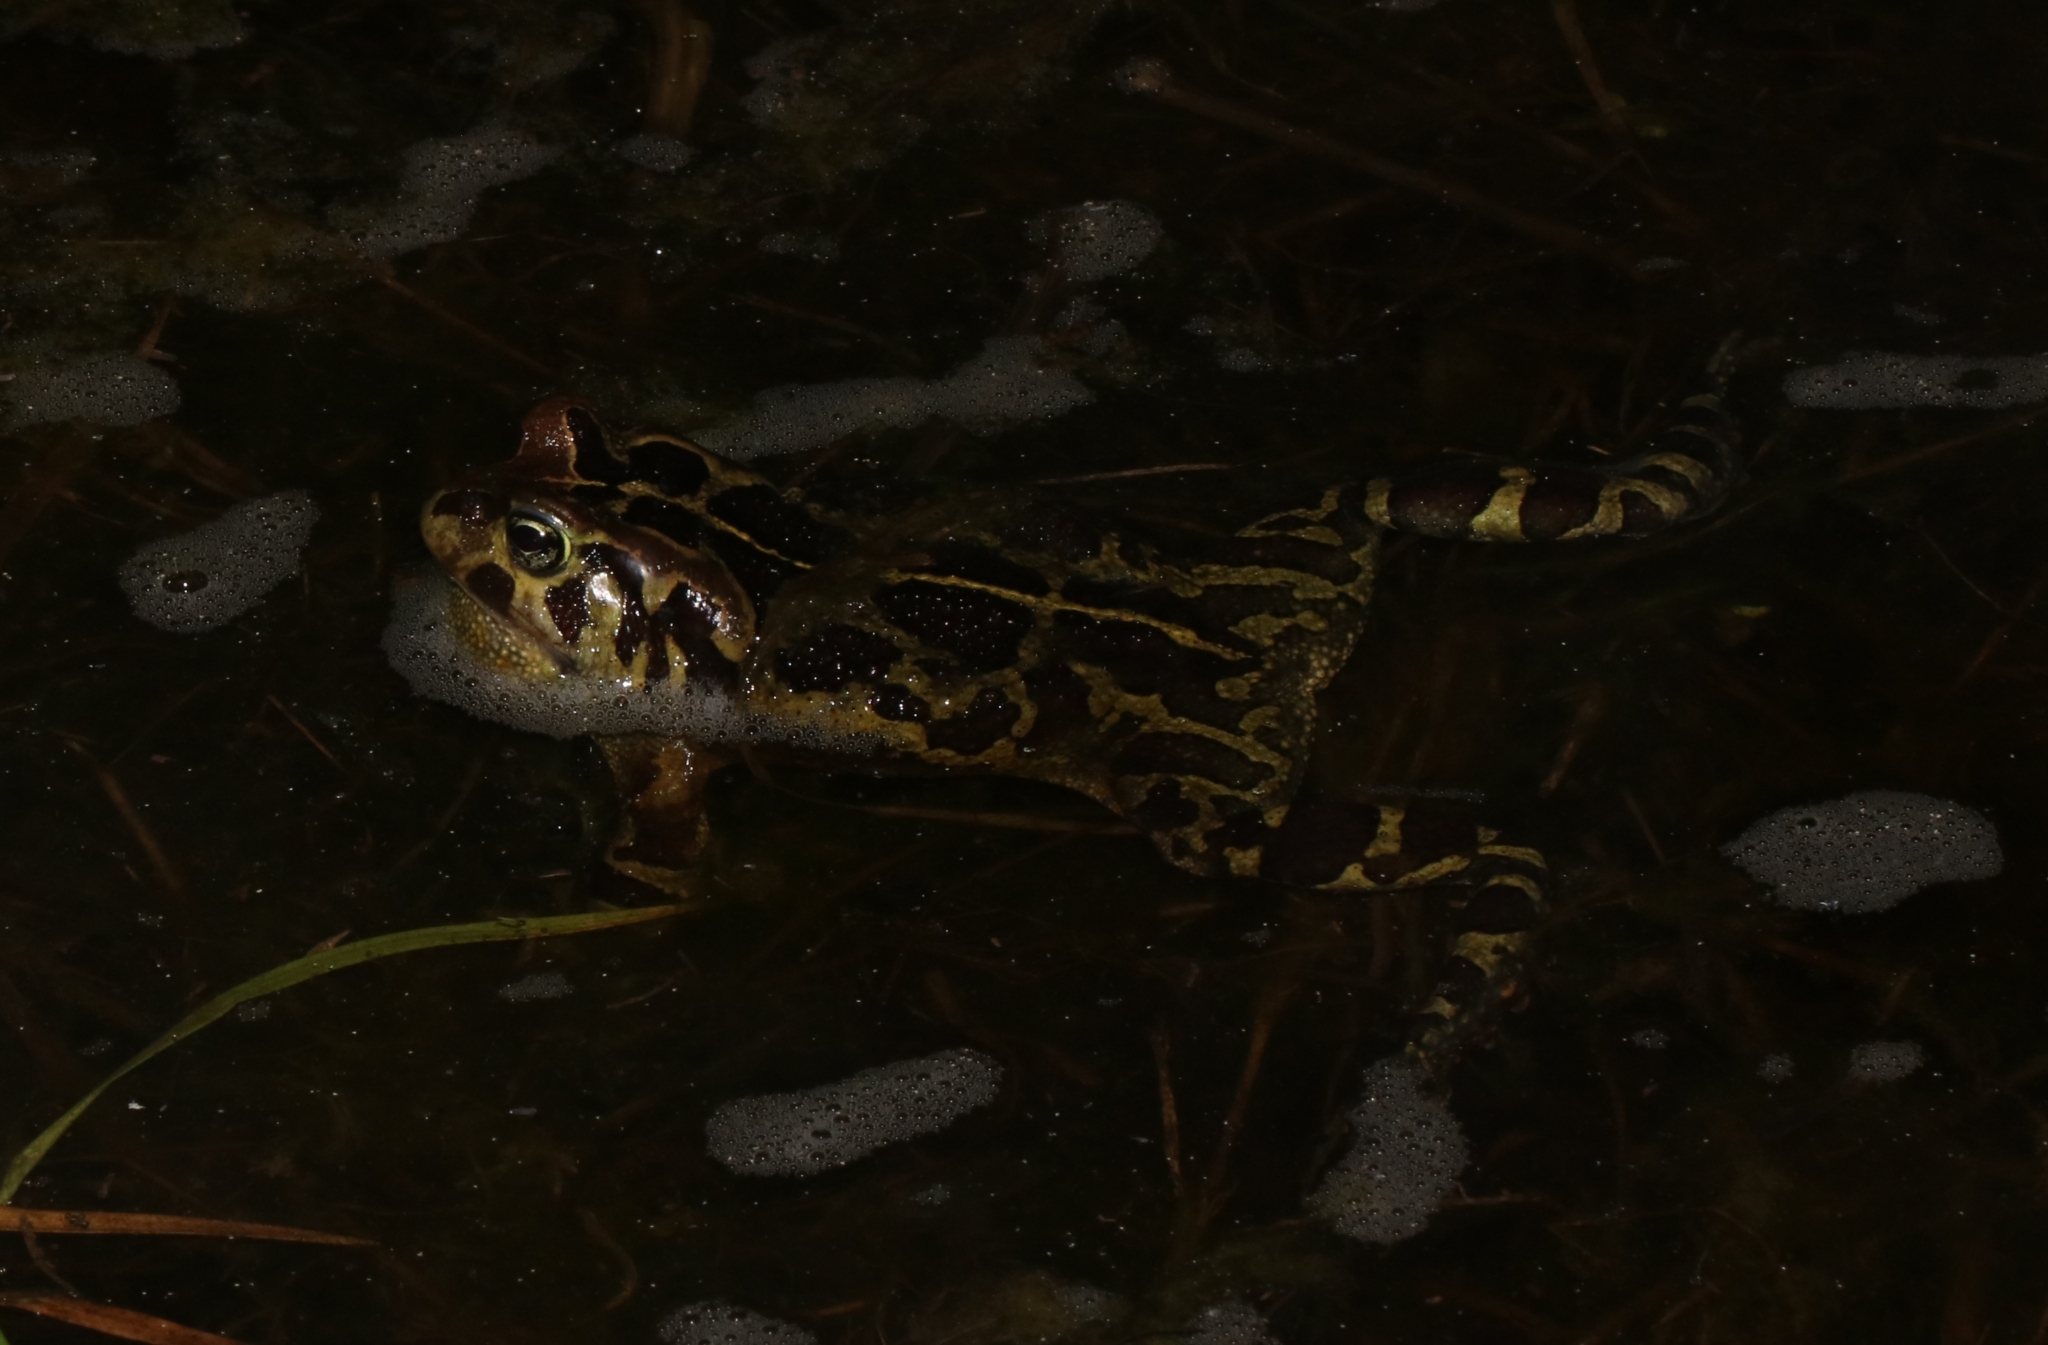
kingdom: Animalia
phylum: Chordata
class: Amphibia
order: Anura
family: Bufonidae
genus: Sclerophrys
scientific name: Sclerophrys pantherina
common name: Panther toad
